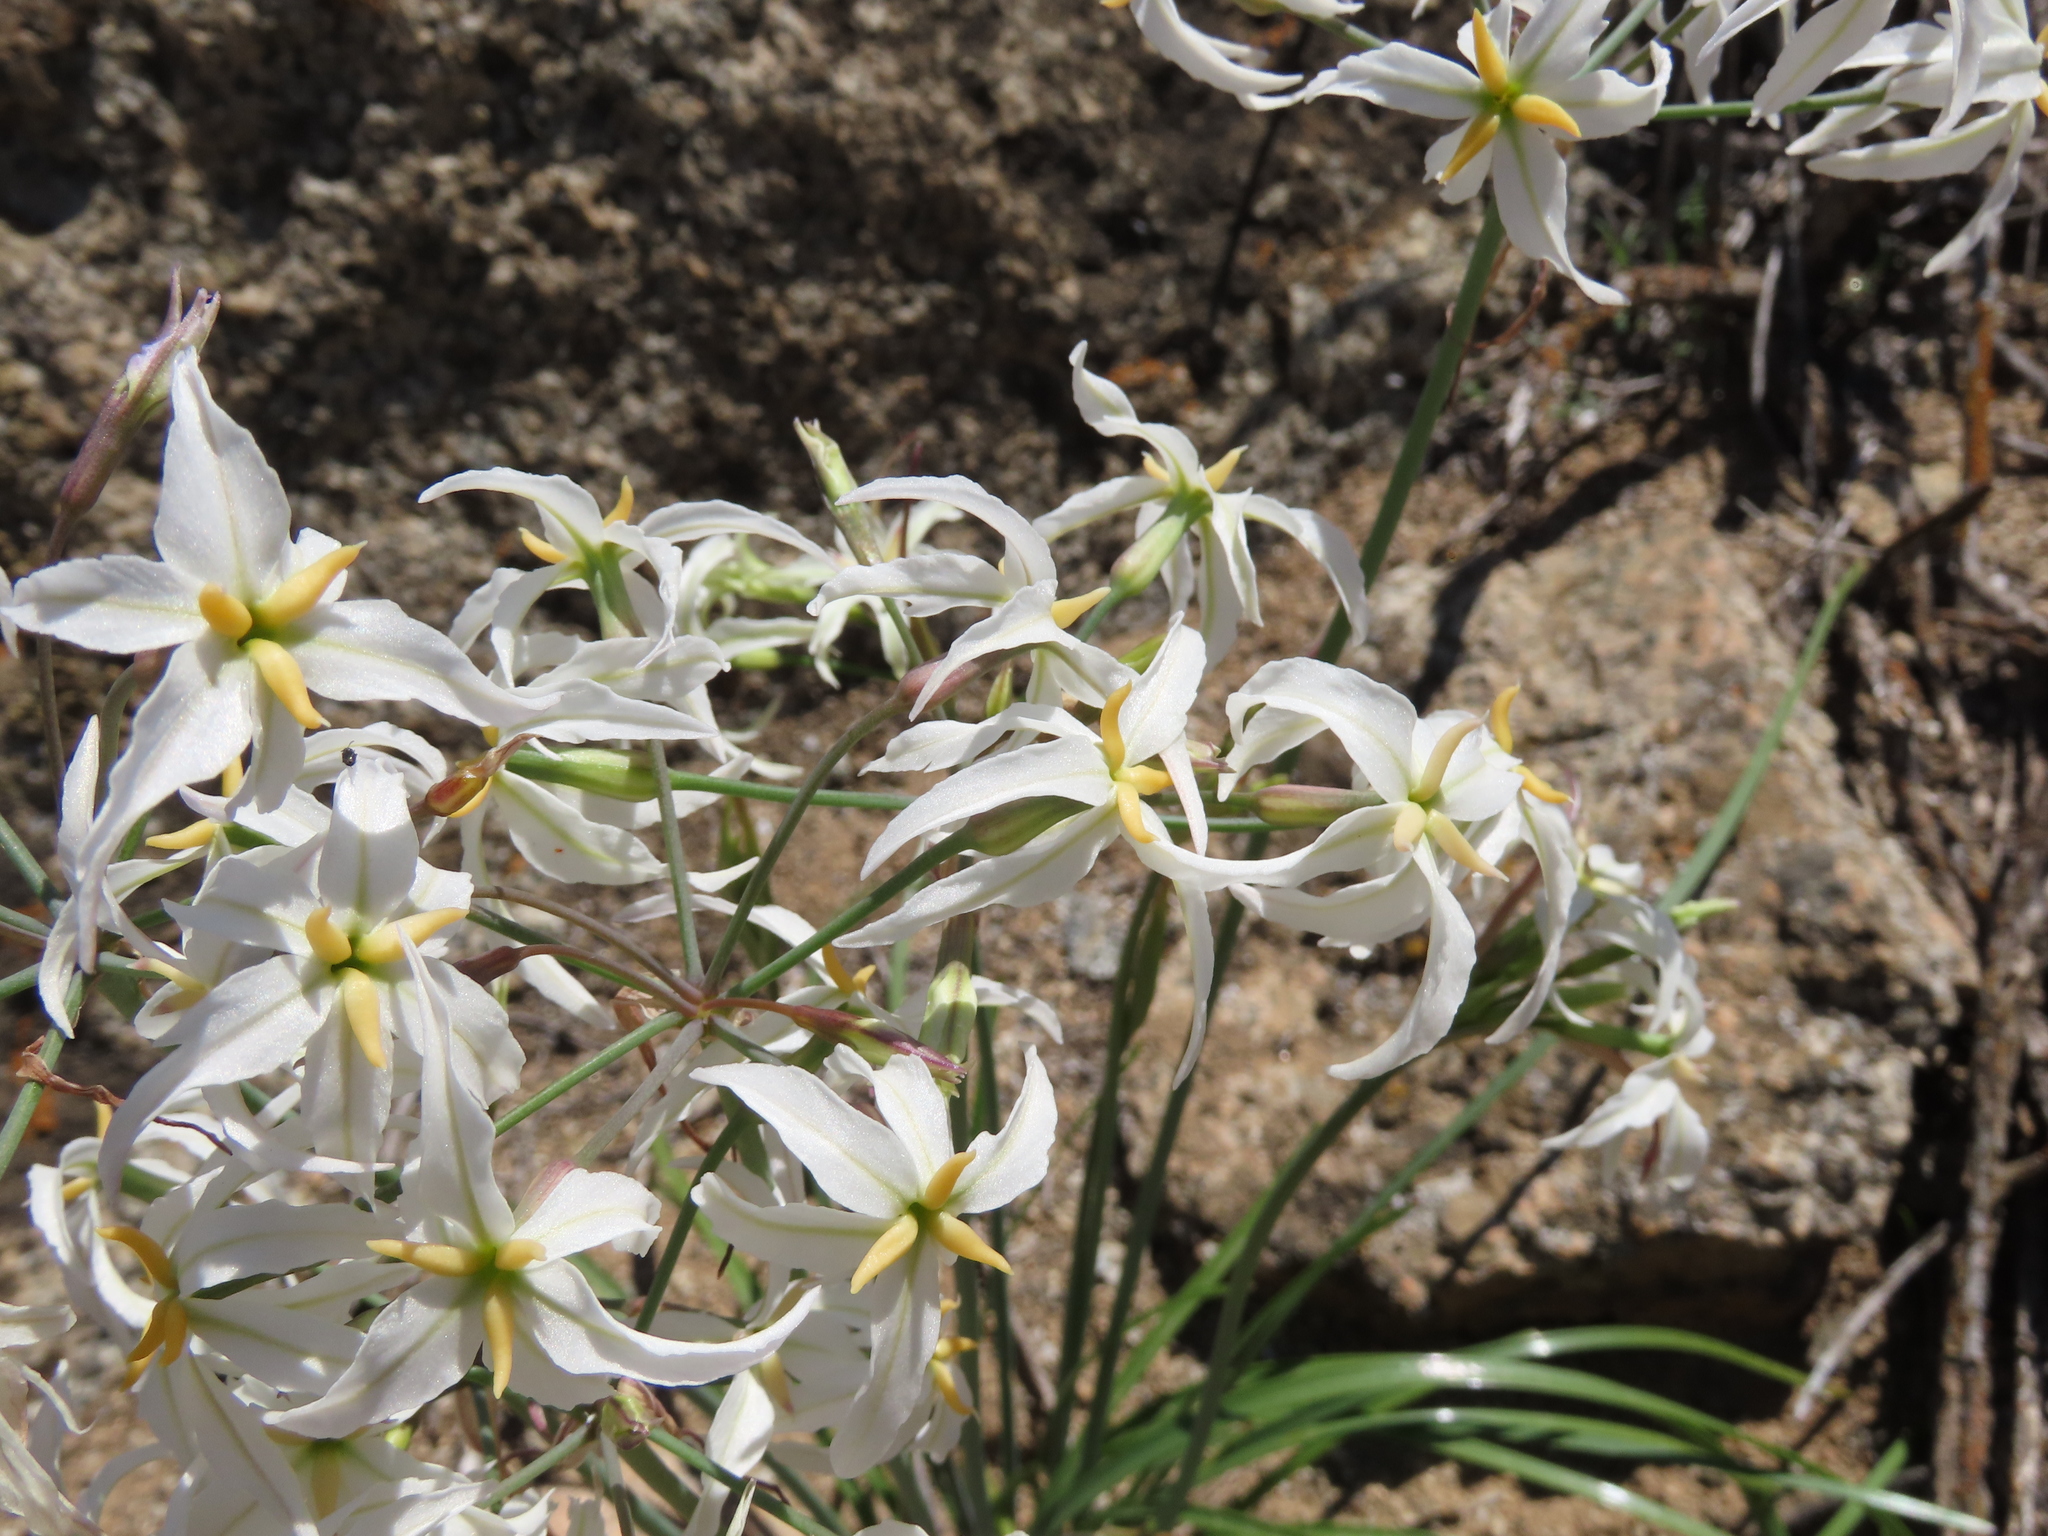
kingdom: Plantae
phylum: Tracheophyta
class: Liliopsida
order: Asparagales
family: Amaryllidaceae
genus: Leucocoryne
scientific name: Leucocoryne appendiculata
